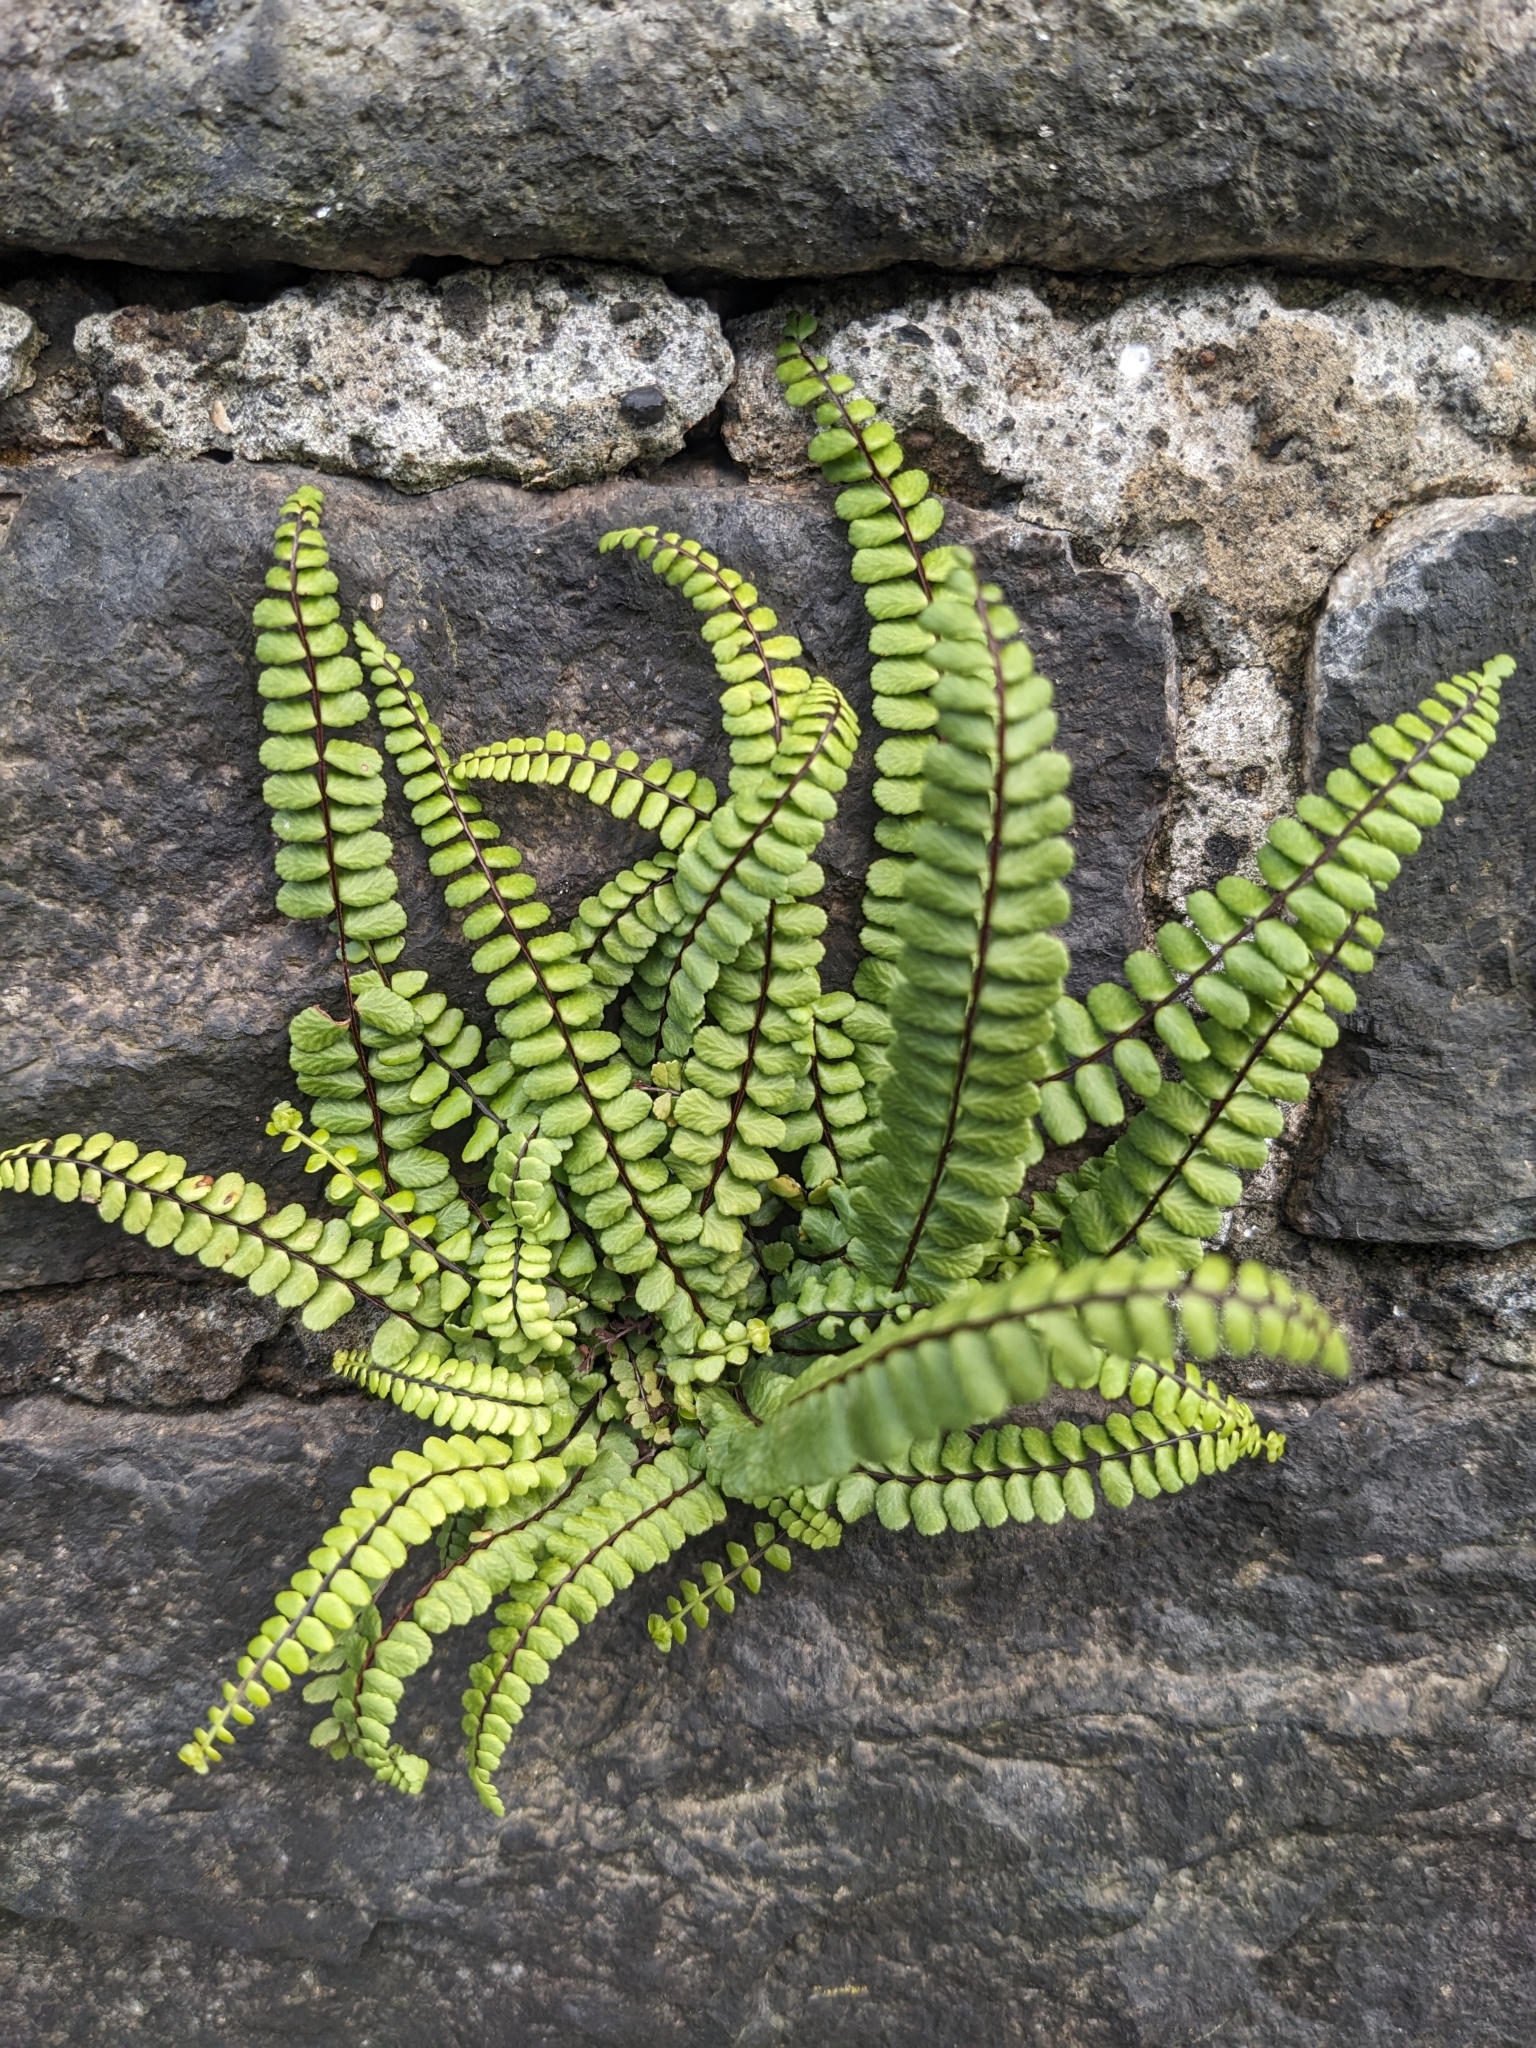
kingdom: Plantae
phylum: Tracheophyta
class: Polypodiopsida
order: Polypodiales
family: Aspleniaceae
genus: Asplenium
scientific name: Asplenium trichomanes
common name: Maidenhair spleenwort
